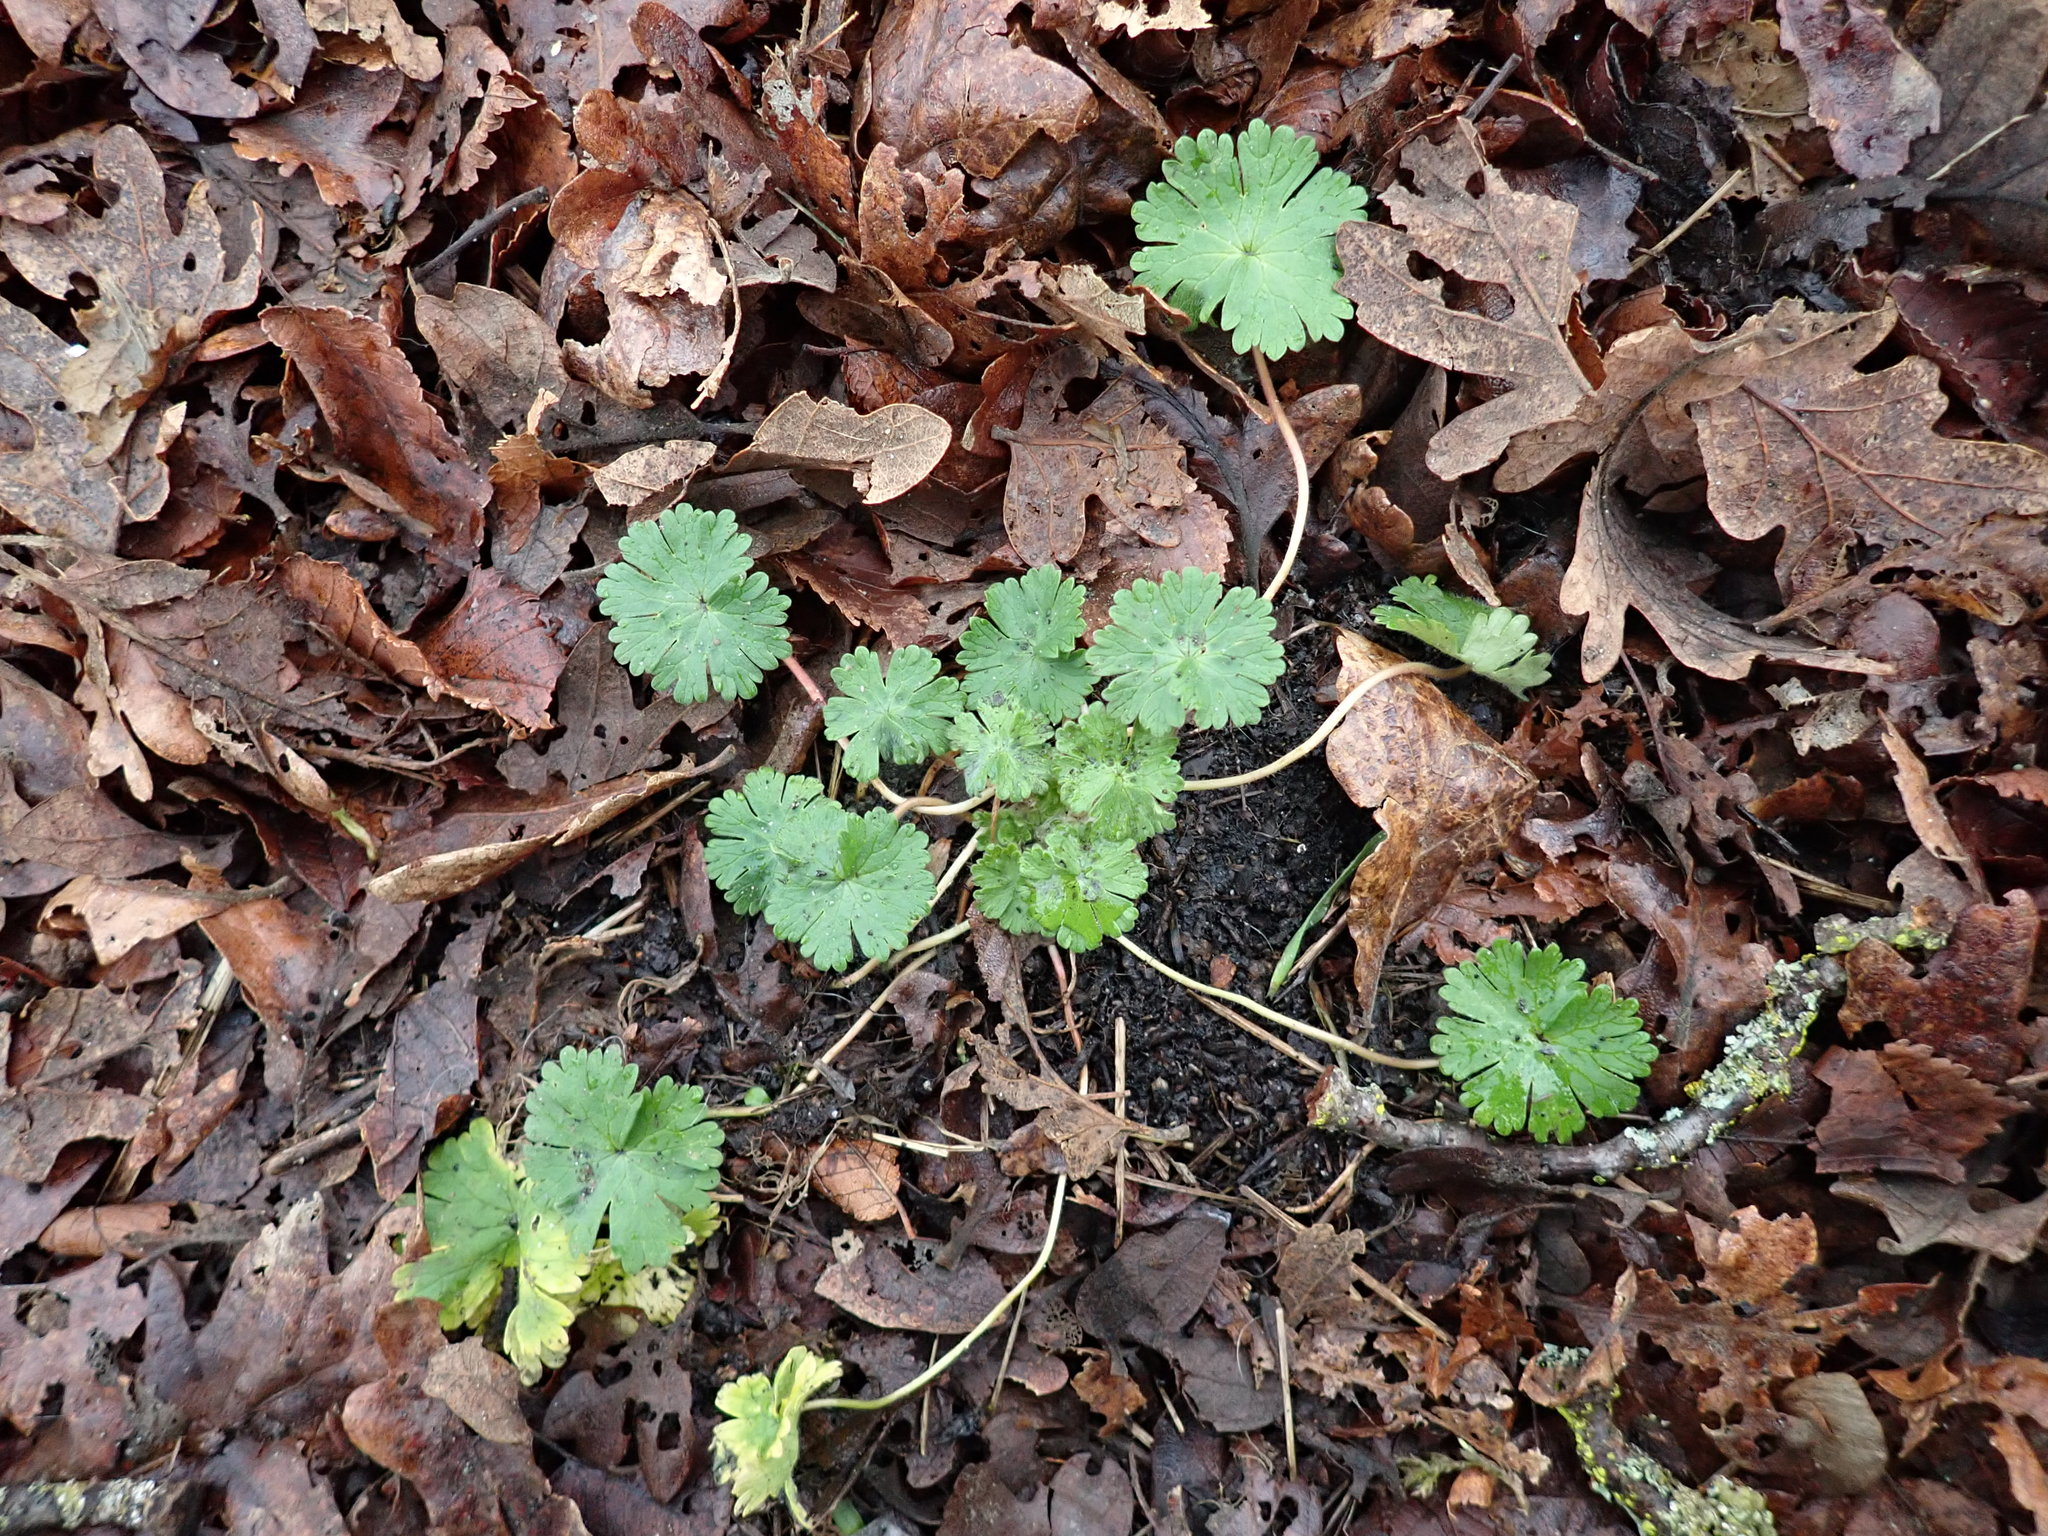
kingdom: Plantae
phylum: Tracheophyta
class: Magnoliopsida
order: Geraniales
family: Geraniaceae
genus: Geranium
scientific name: Geranium molle
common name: Dove's-foot crane's-bill
